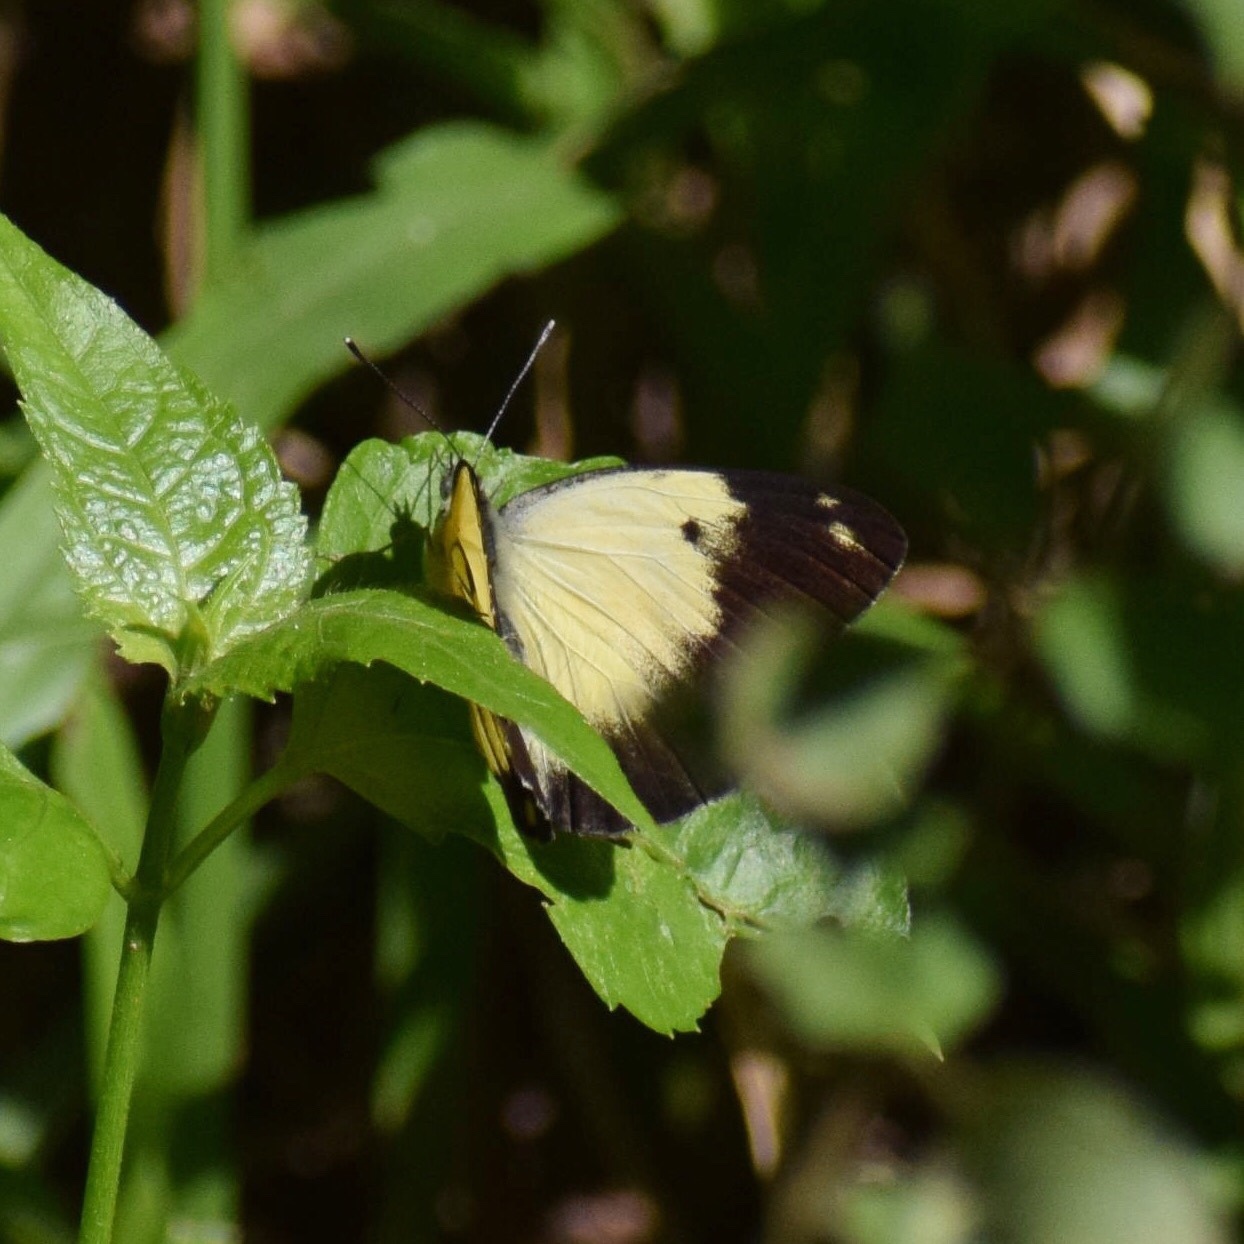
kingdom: Animalia
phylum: Arthropoda
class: Insecta
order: Lepidoptera
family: Pieridae
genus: Belenois
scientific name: Belenois creona
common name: African caper white
